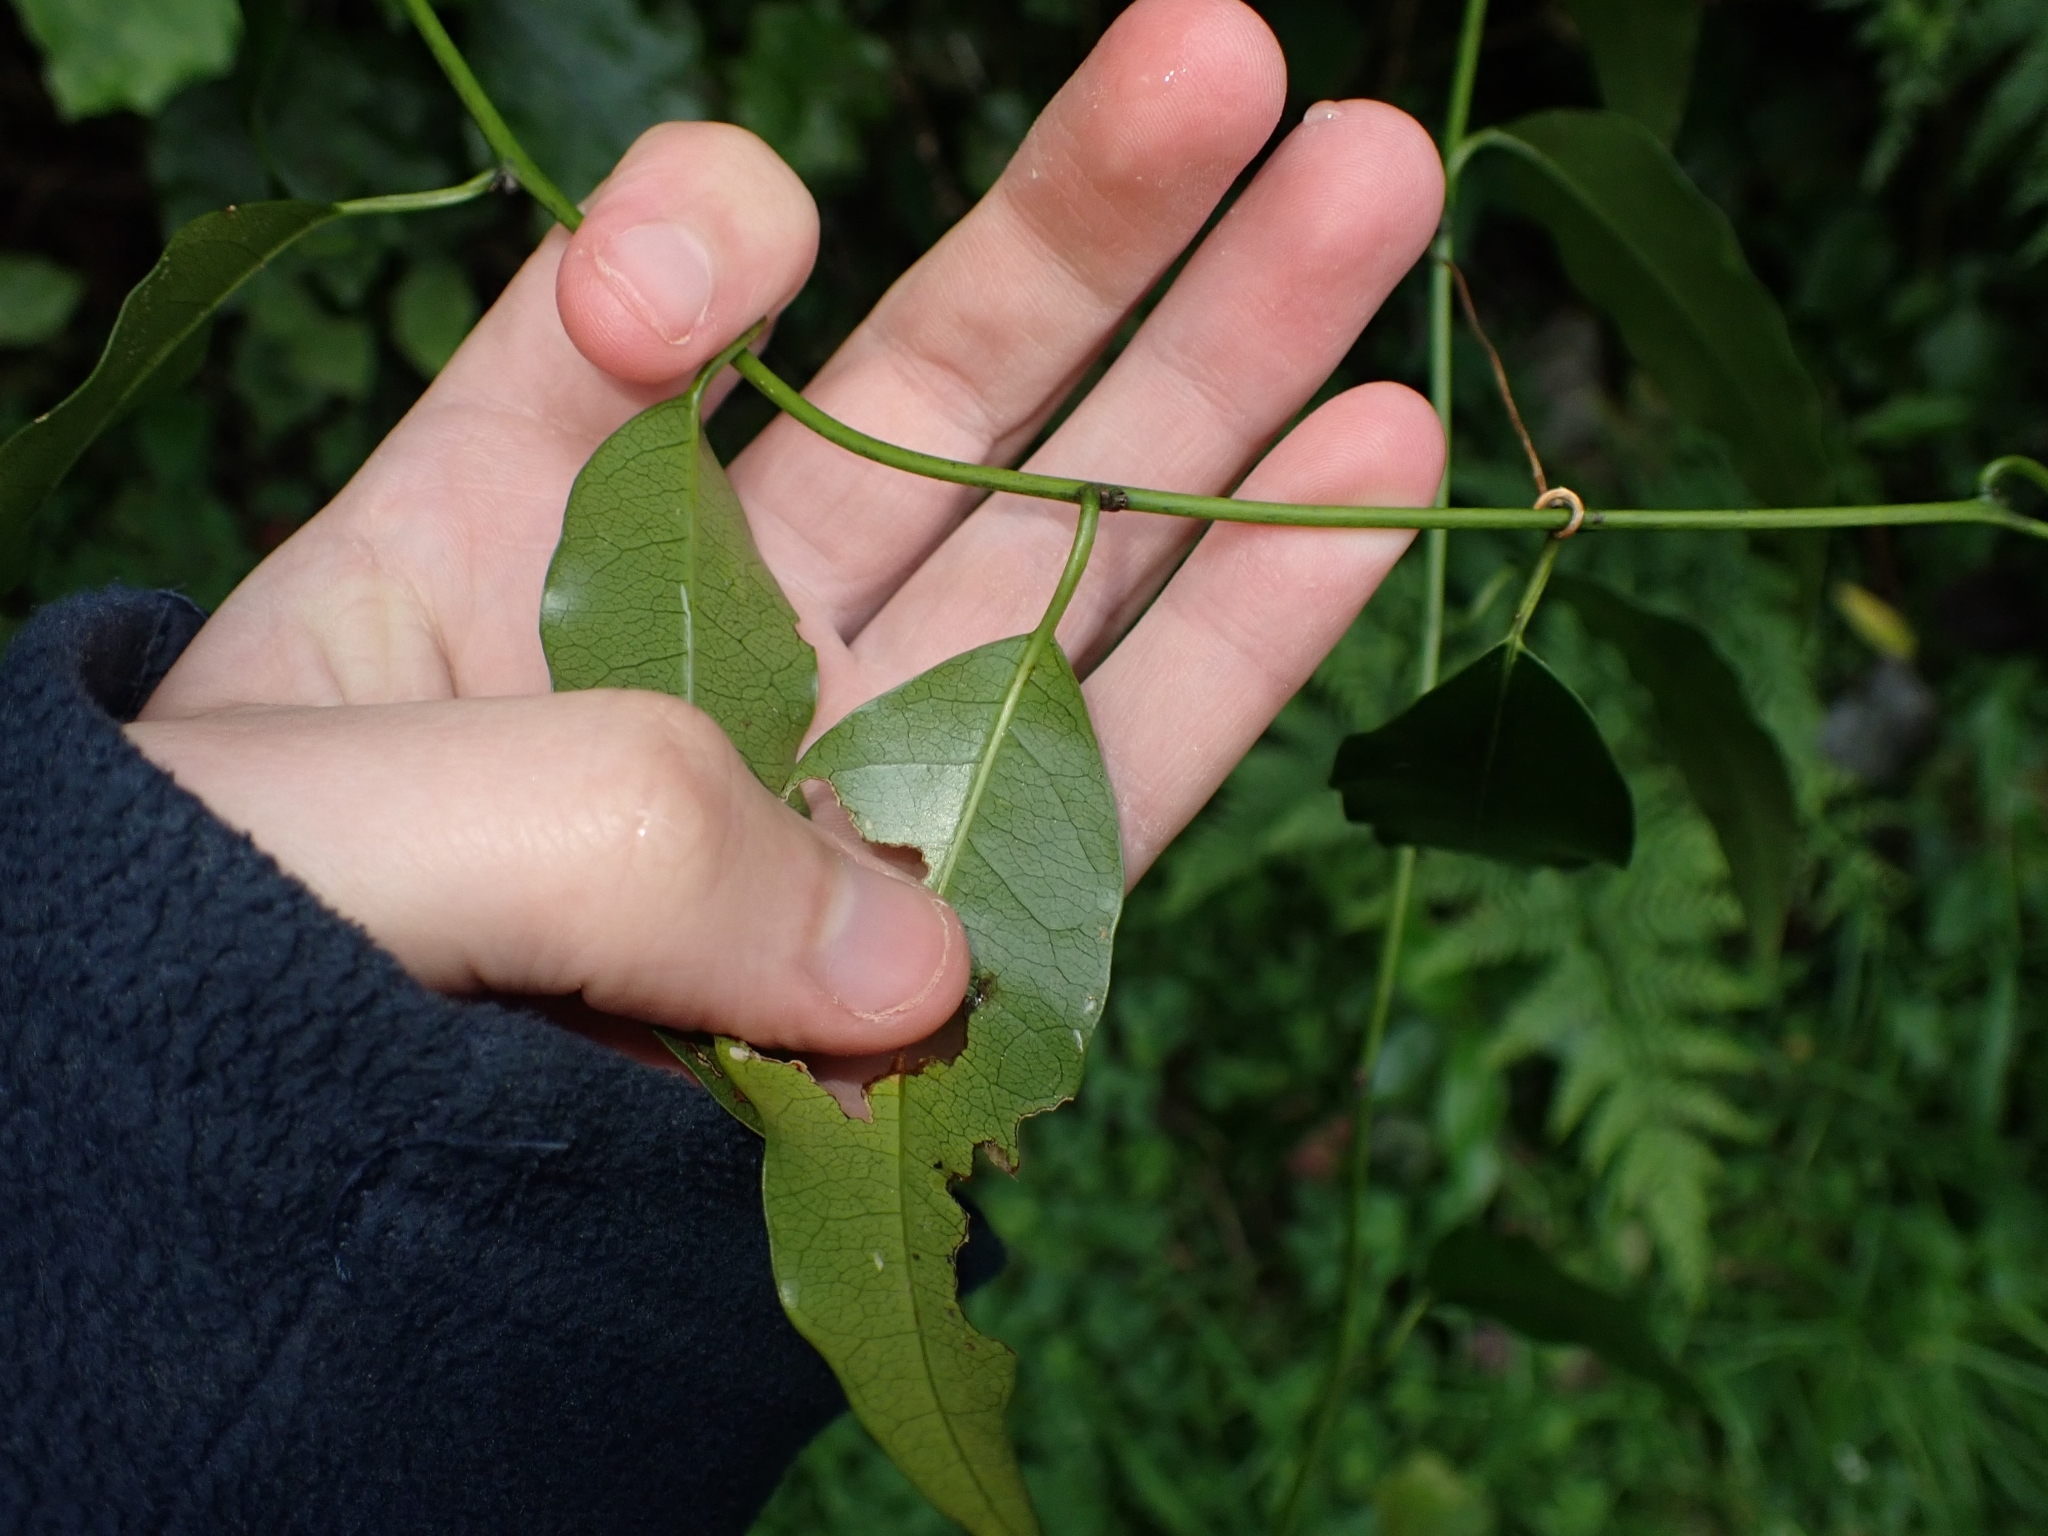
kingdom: Plantae
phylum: Tracheophyta
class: Magnoliopsida
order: Malpighiales
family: Passifloraceae
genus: Passiflora
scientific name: Passiflora tetrandra
